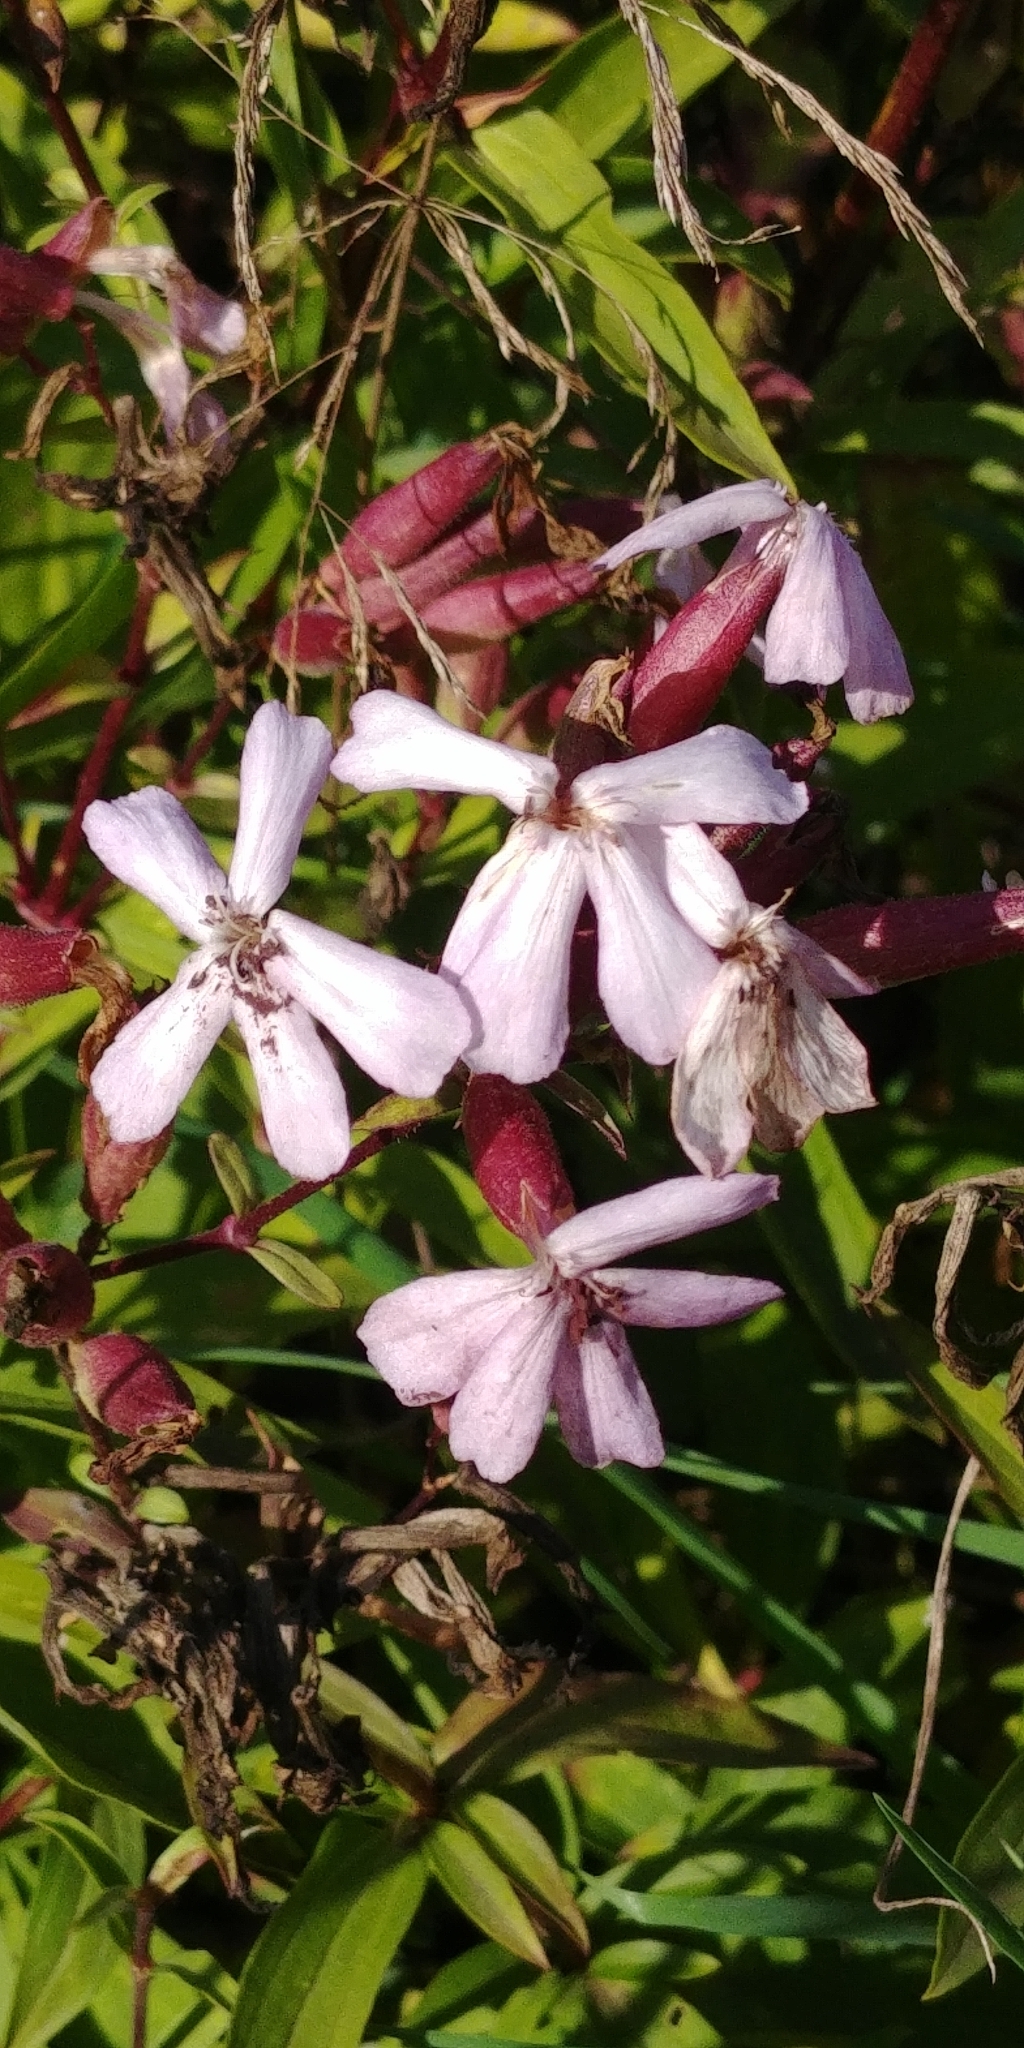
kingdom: Plantae
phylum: Tracheophyta
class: Magnoliopsida
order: Caryophyllales
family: Caryophyllaceae
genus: Saponaria
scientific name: Saponaria officinalis
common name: Soapwort
